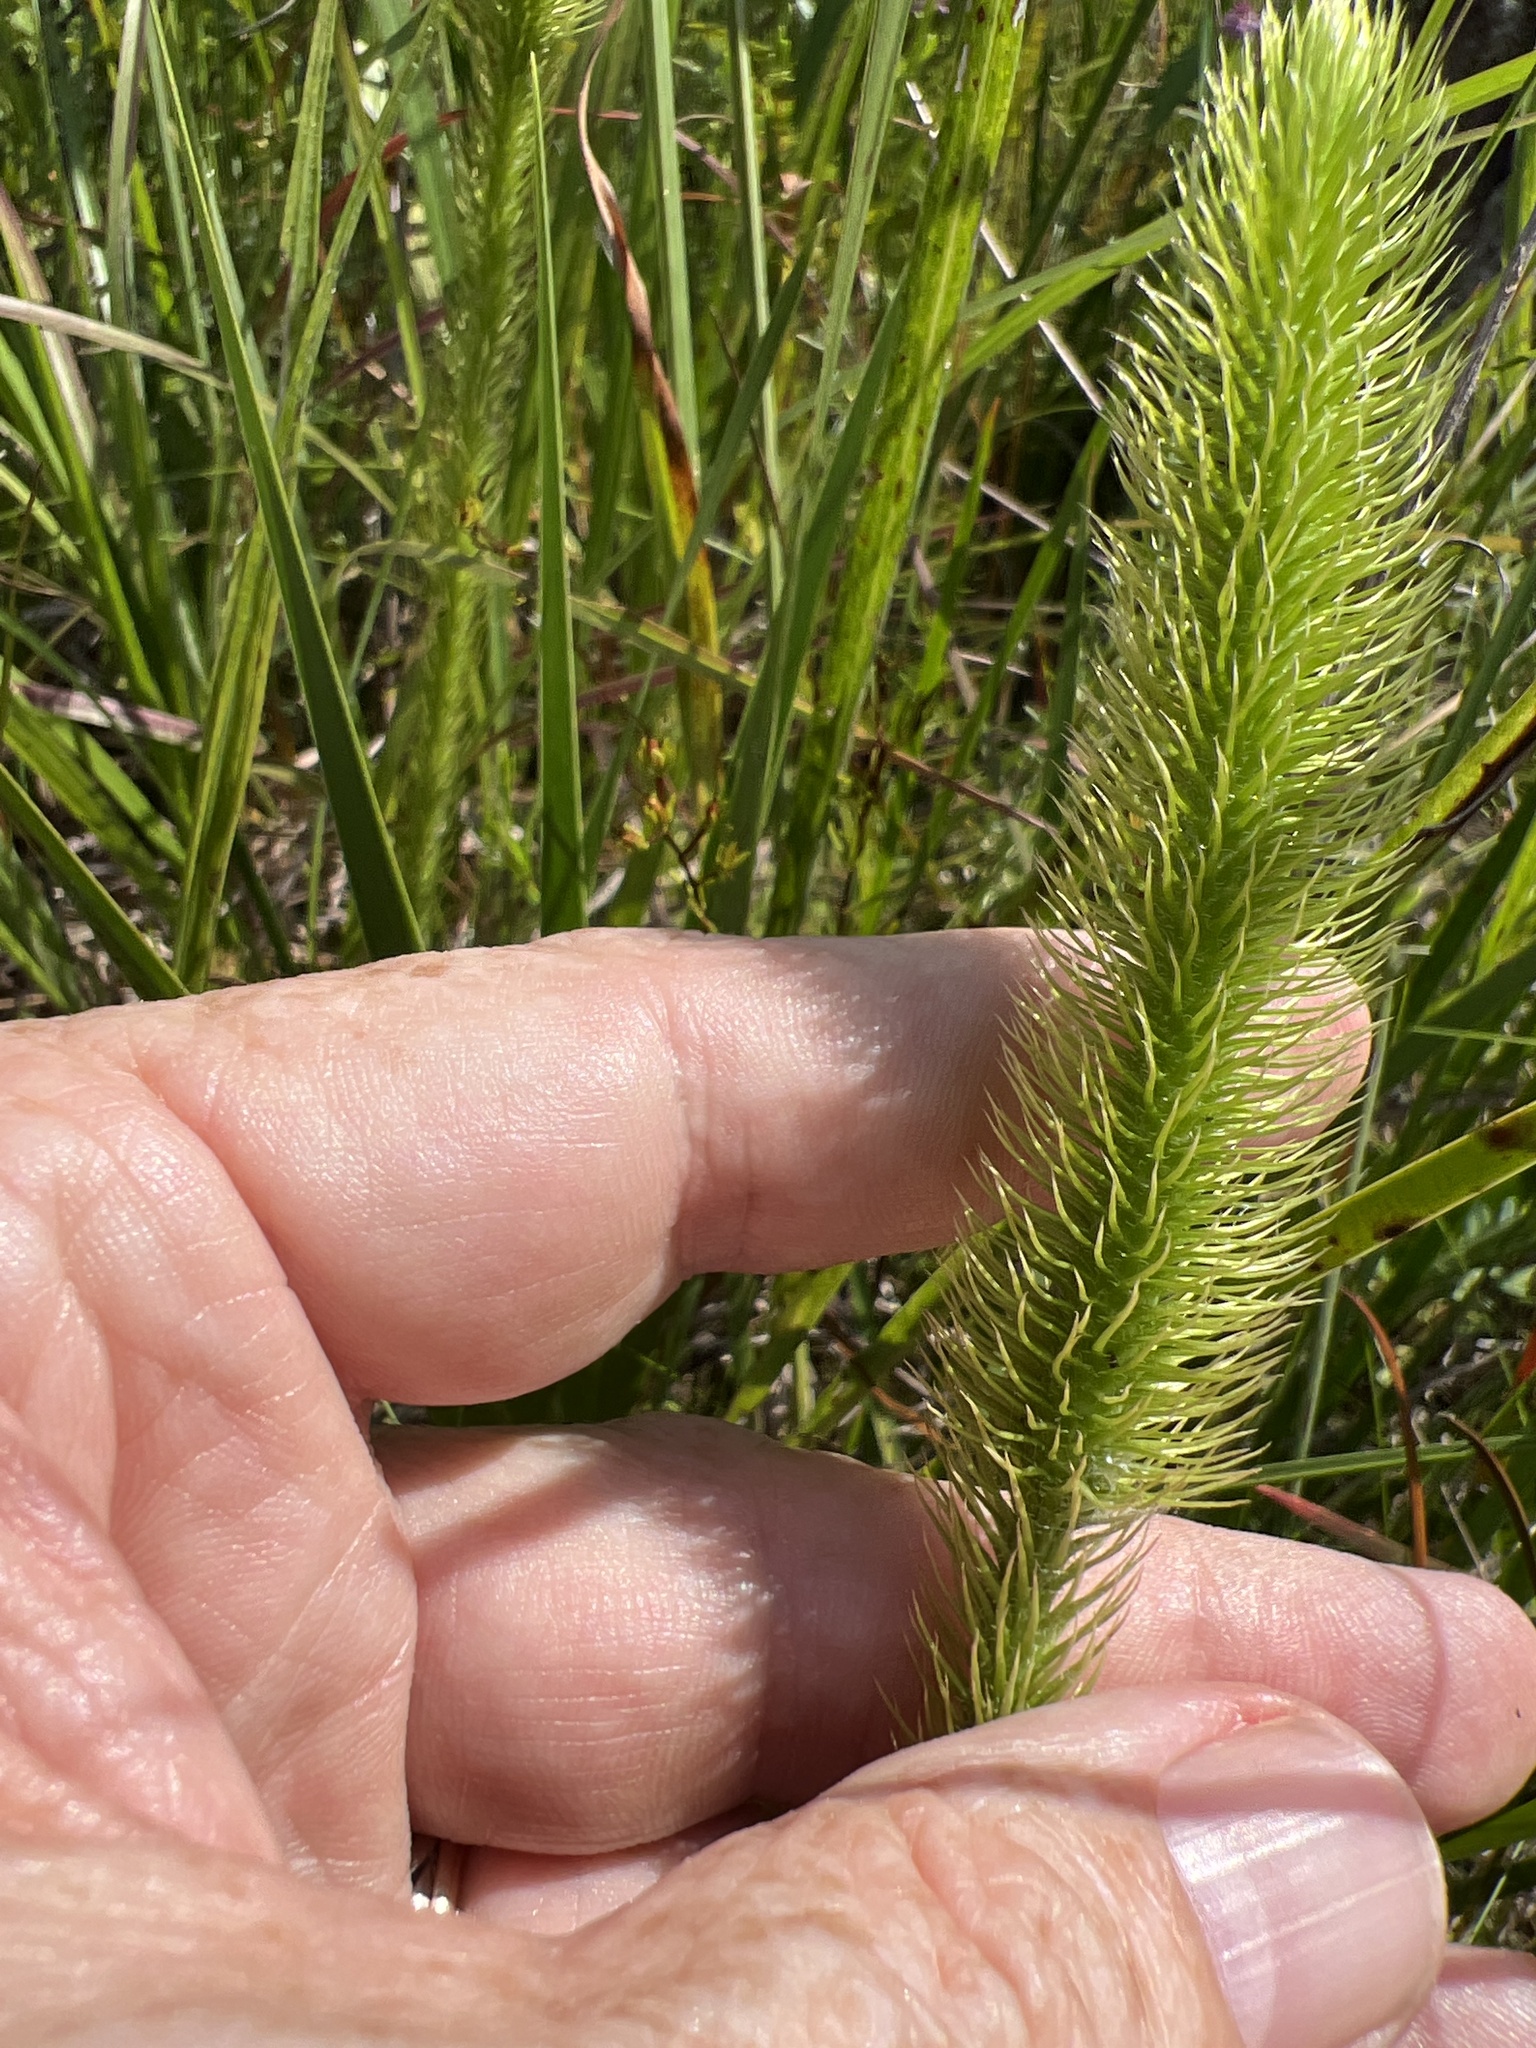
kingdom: Plantae
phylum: Tracheophyta
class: Lycopodiopsida
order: Lycopodiales
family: Lycopodiaceae
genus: Lycopodiella
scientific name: Lycopodiella alopecuroides
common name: Foxtail clubmoss
